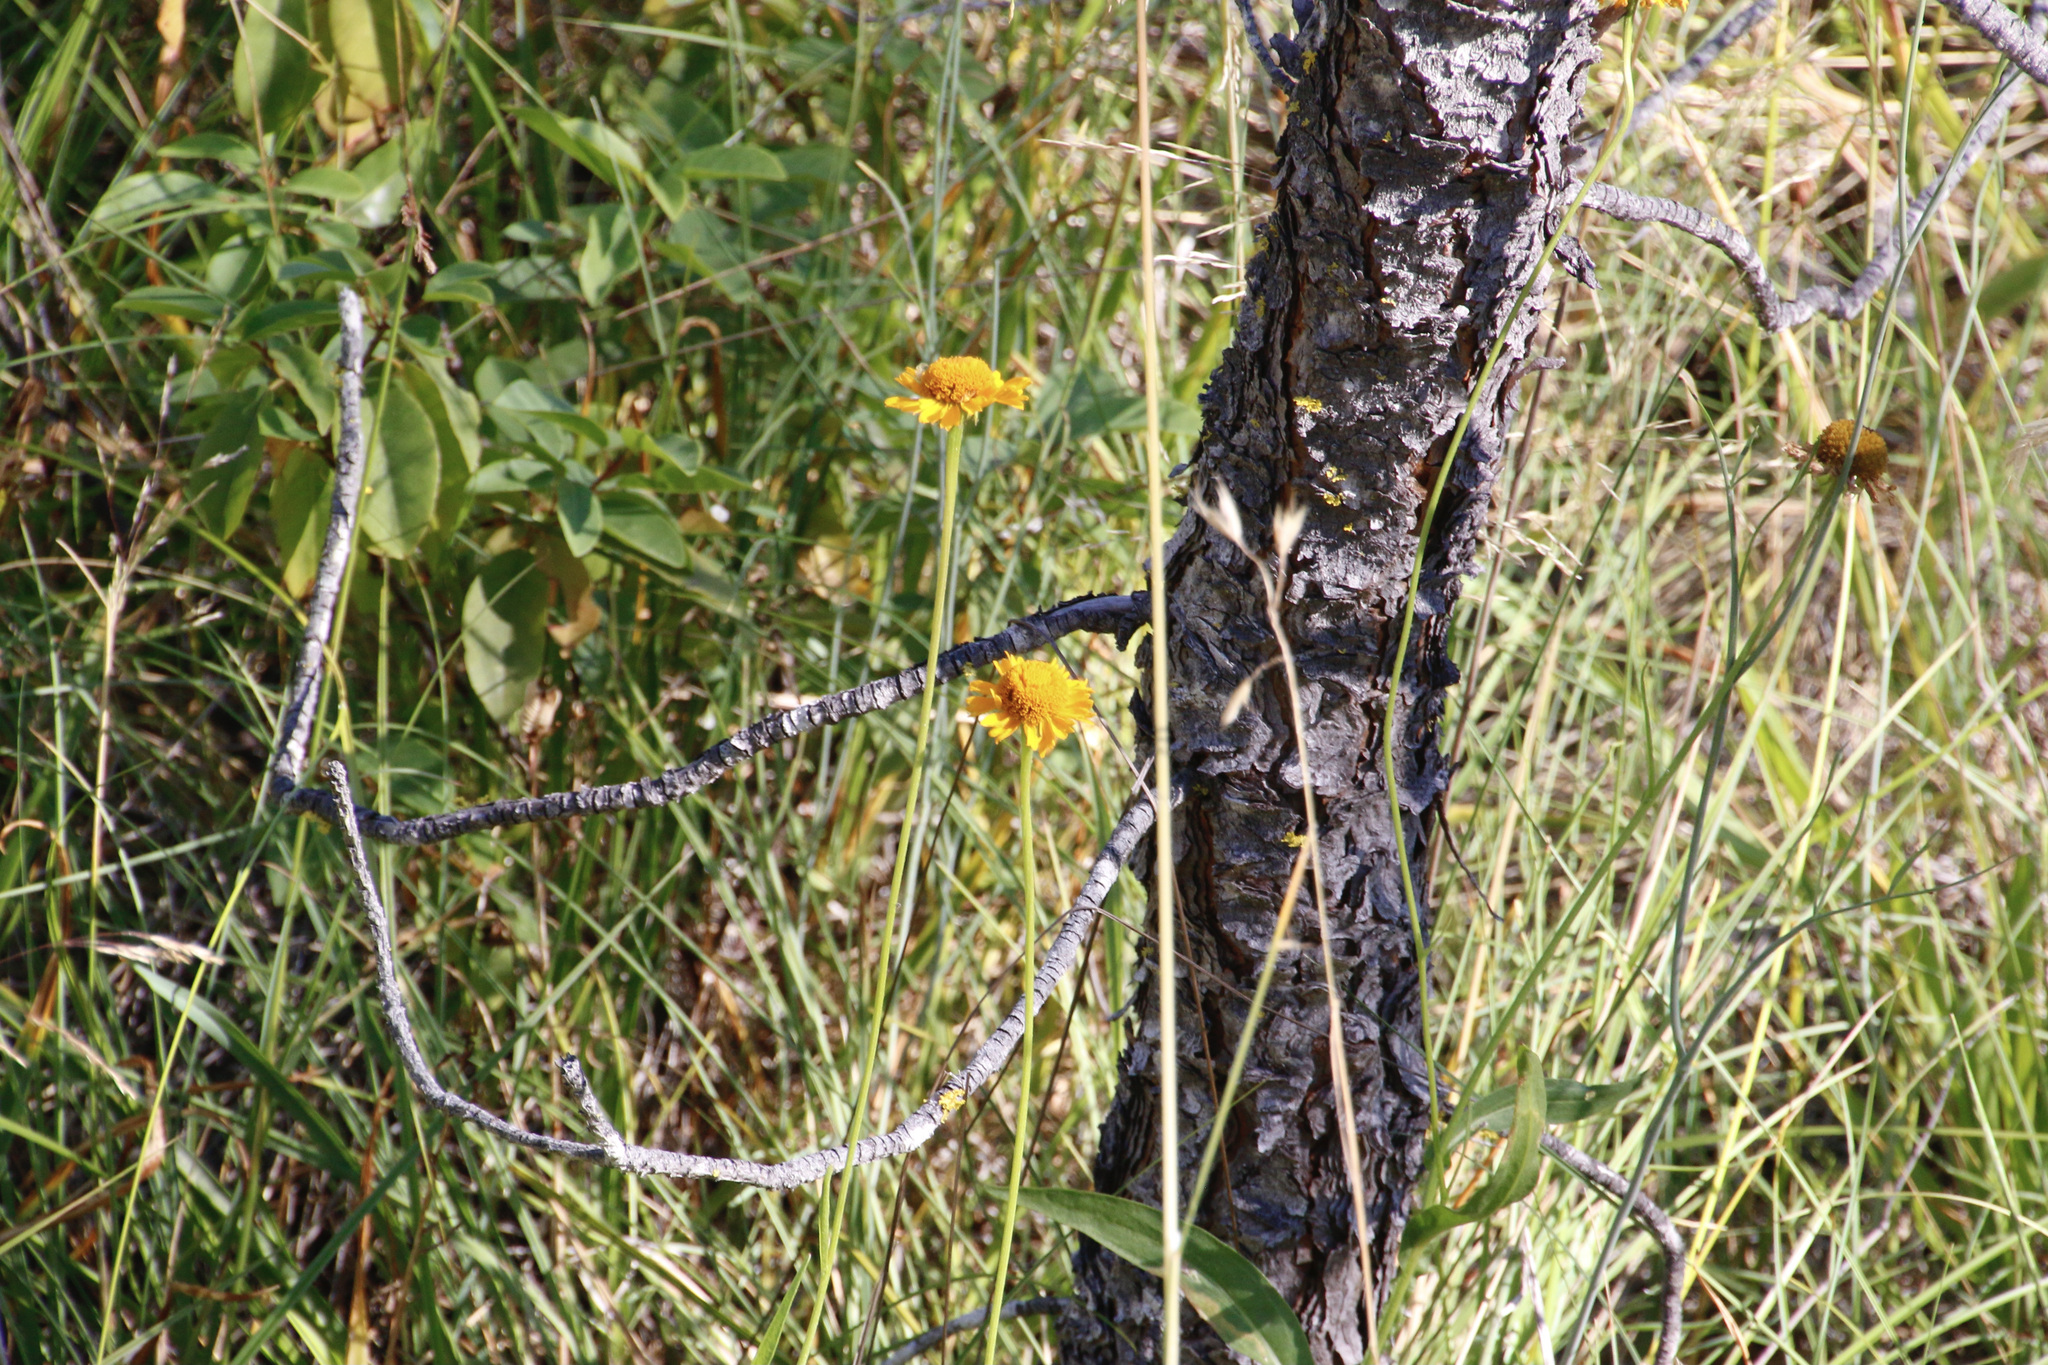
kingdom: Plantae
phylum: Tracheophyta
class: Magnoliopsida
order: Asterales
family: Asteraceae
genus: Helenium
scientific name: Helenium bigelovii
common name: Bigelow's sneezeweed
